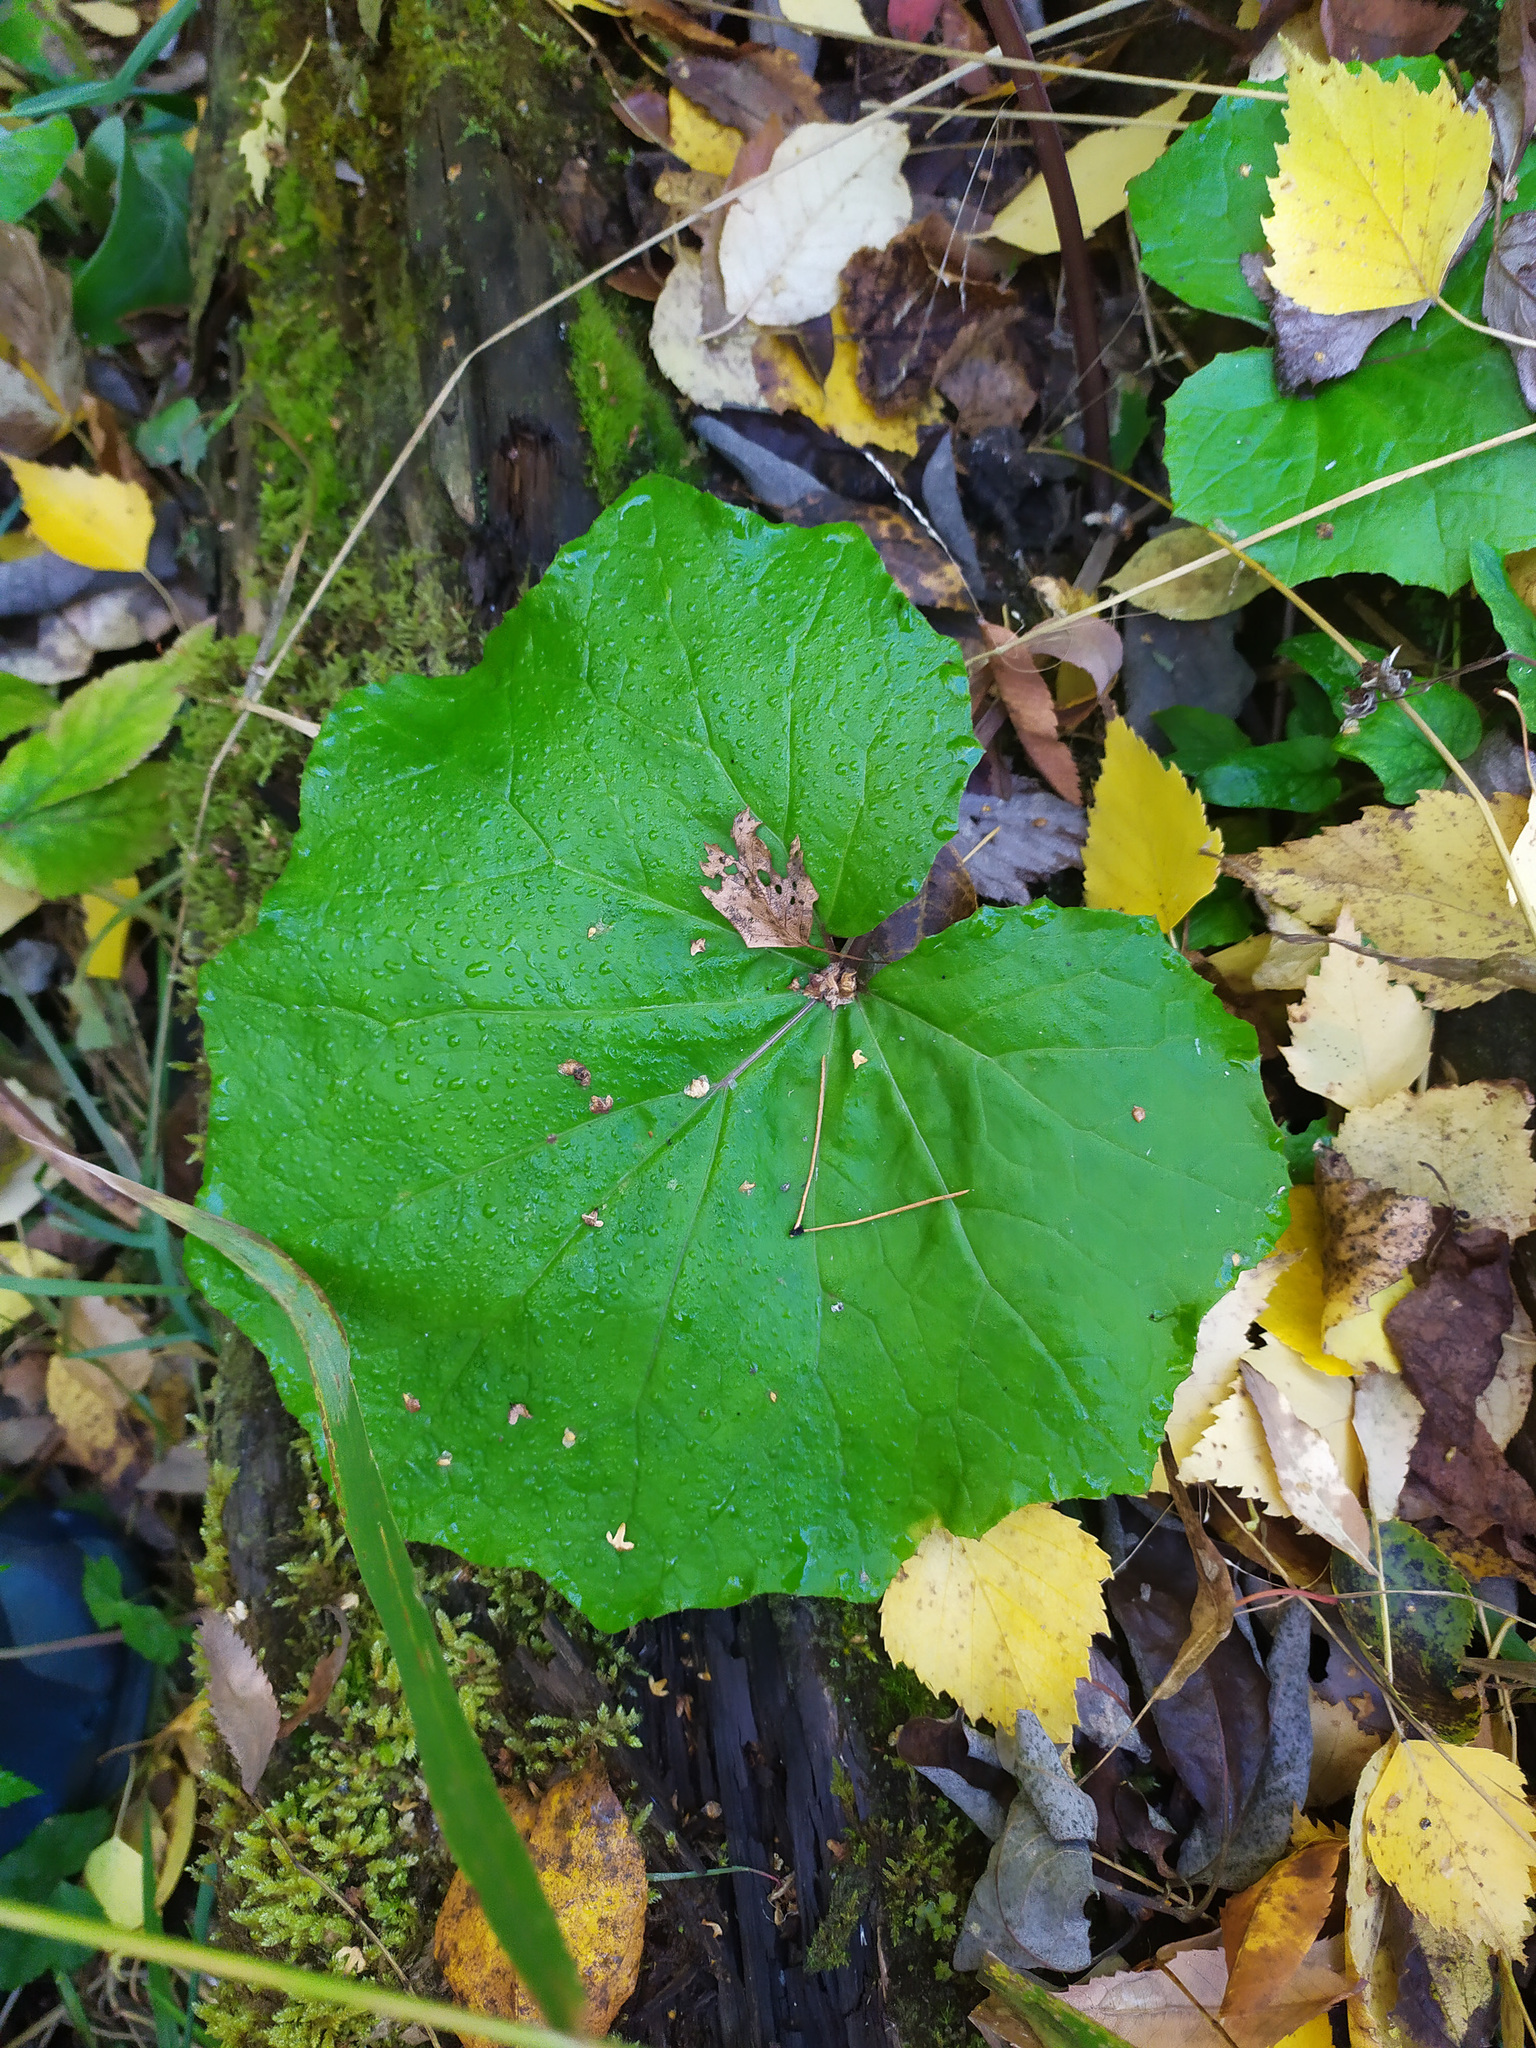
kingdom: Plantae
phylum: Tracheophyta
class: Magnoliopsida
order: Asterales
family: Asteraceae
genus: Tussilago
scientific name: Tussilago farfara
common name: Coltsfoot
